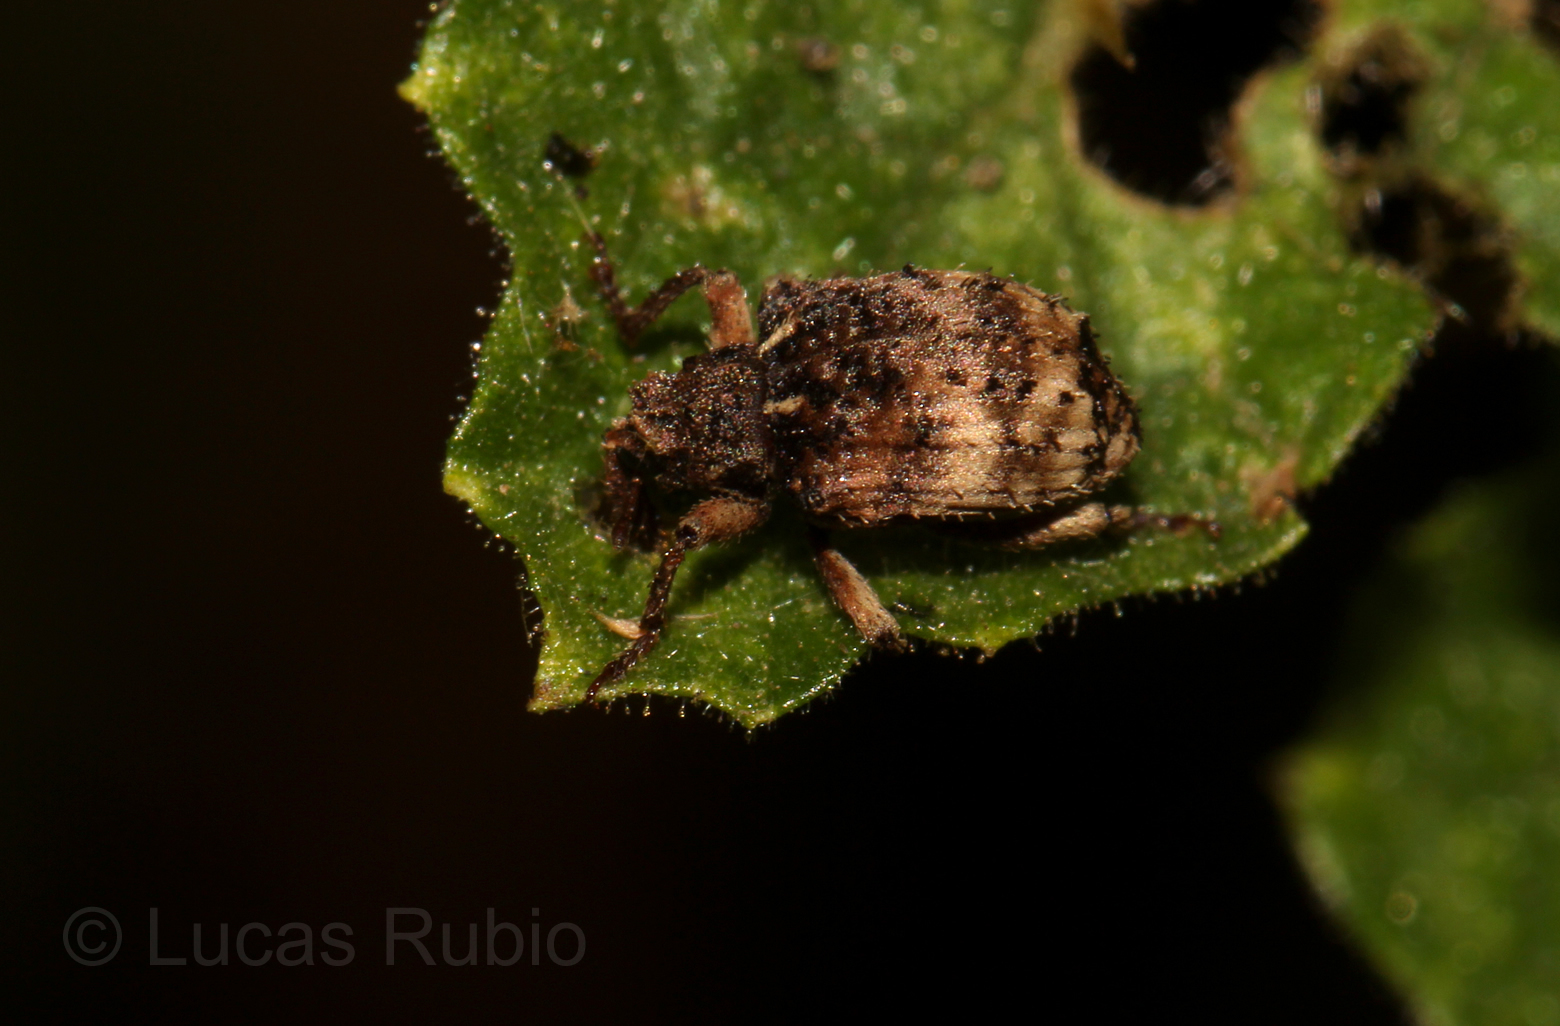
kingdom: Animalia
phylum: Arthropoda
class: Insecta
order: Coleoptera
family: Curculionidae
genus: Phyrdenus
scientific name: Phyrdenus divergens
